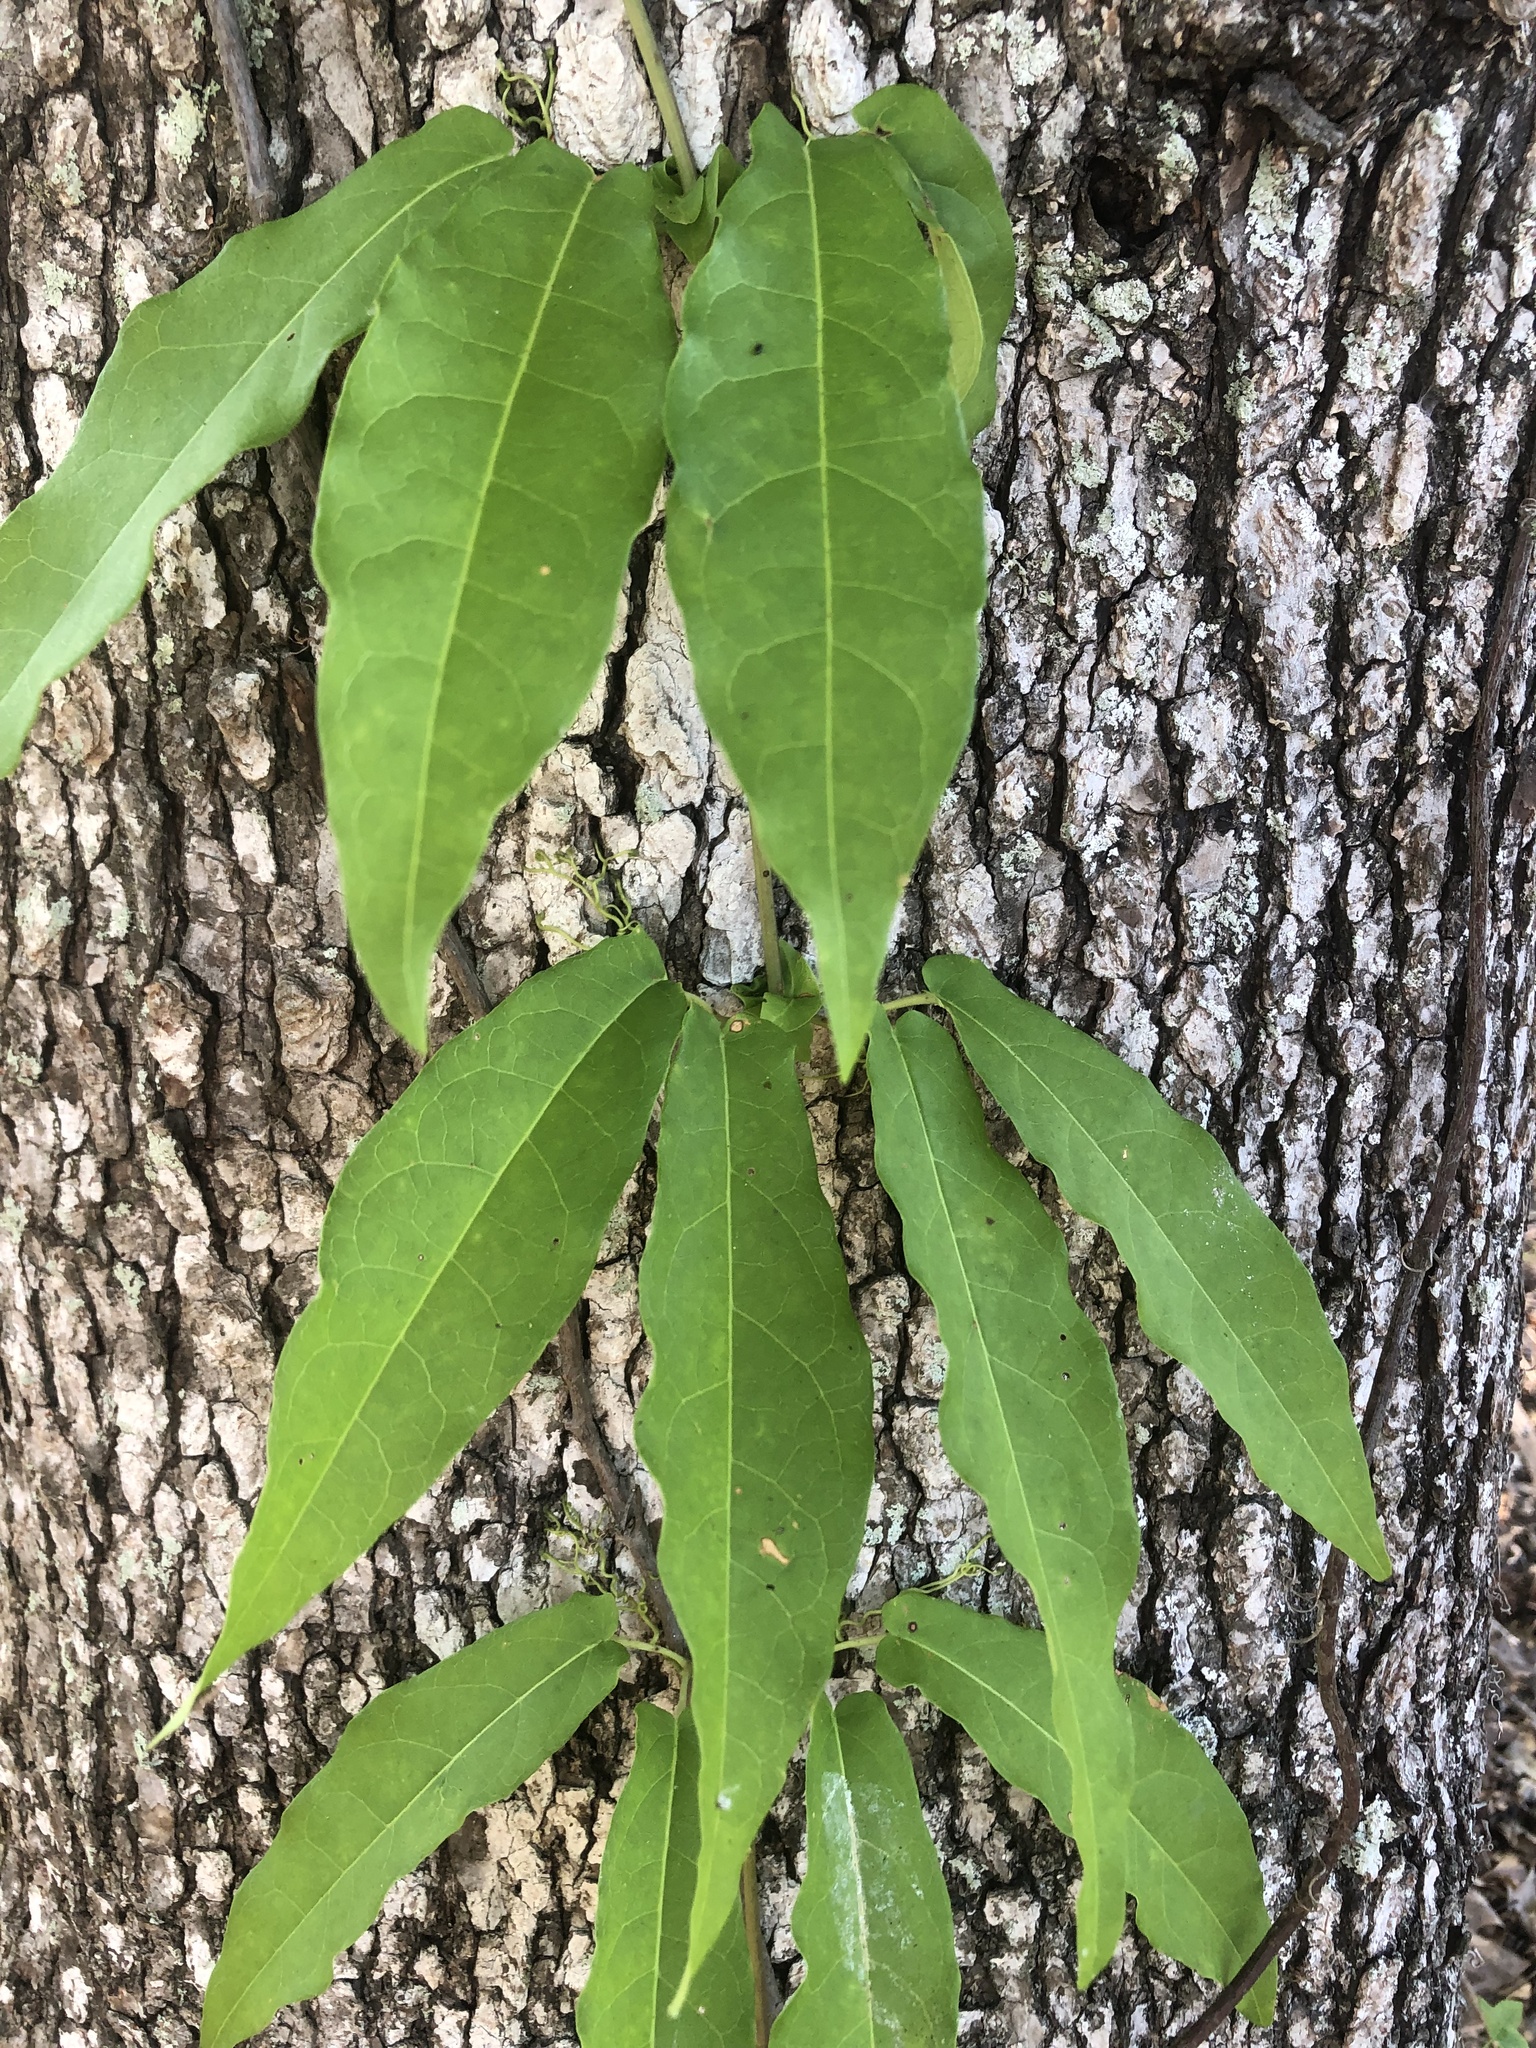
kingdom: Plantae
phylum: Tracheophyta
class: Magnoliopsida
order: Lamiales
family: Bignoniaceae
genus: Bignonia
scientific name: Bignonia capreolata
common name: Crossvine
